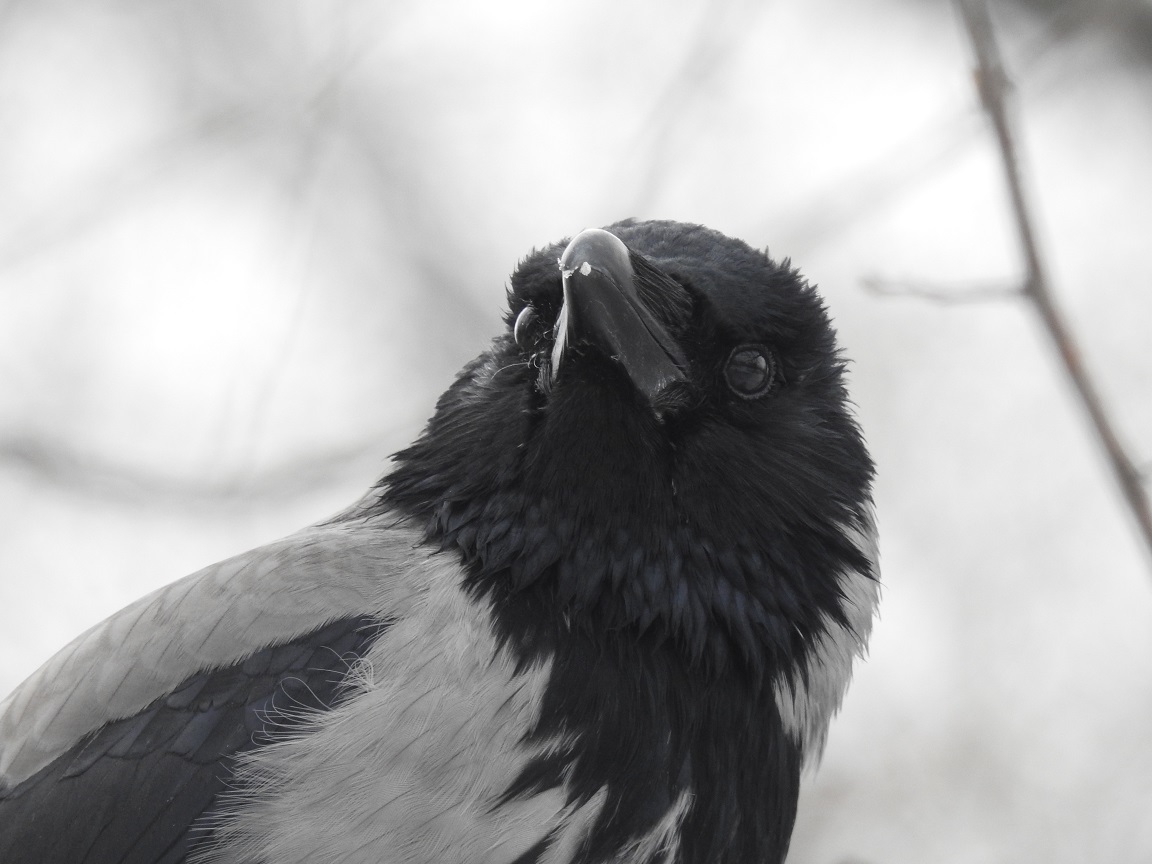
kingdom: Animalia
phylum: Chordata
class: Aves
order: Passeriformes
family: Corvidae
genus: Corvus
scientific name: Corvus cornix
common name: Hooded crow
